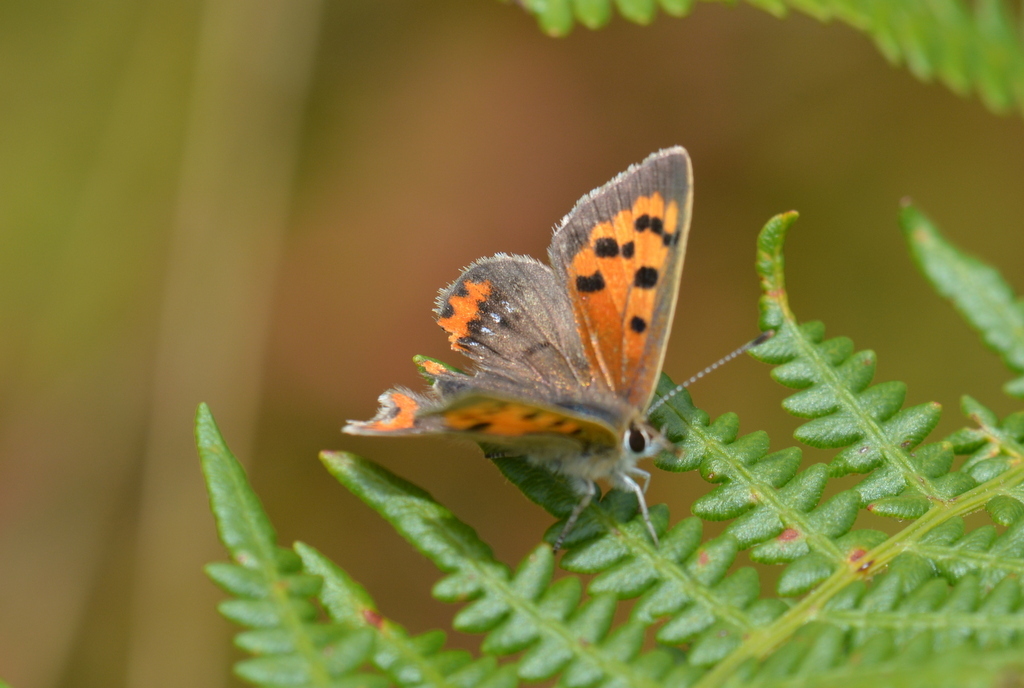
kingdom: Animalia
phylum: Arthropoda
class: Insecta
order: Lepidoptera
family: Lycaenidae
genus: Lycaena
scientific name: Lycaena phlaeas
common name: Small copper
